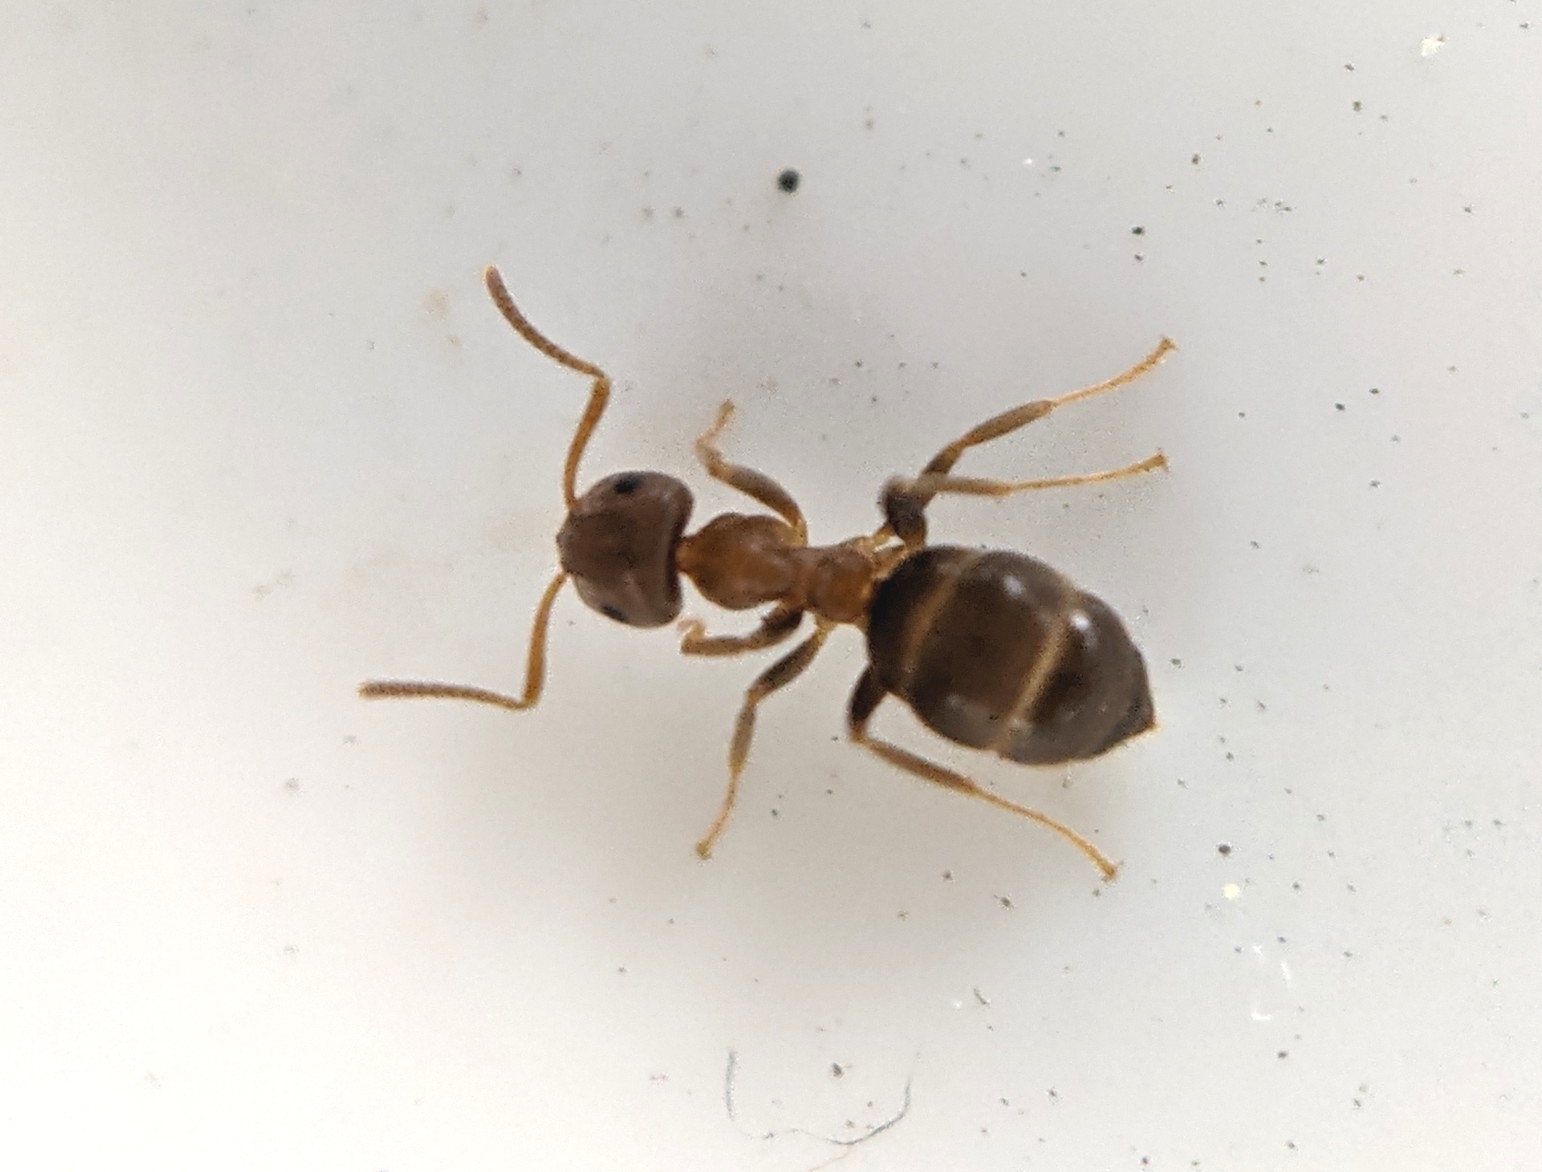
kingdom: Animalia
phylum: Arthropoda
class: Insecta
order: Hymenoptera
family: Formicidae
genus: Lasius
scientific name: Lasius brunneus
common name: Brown ant
